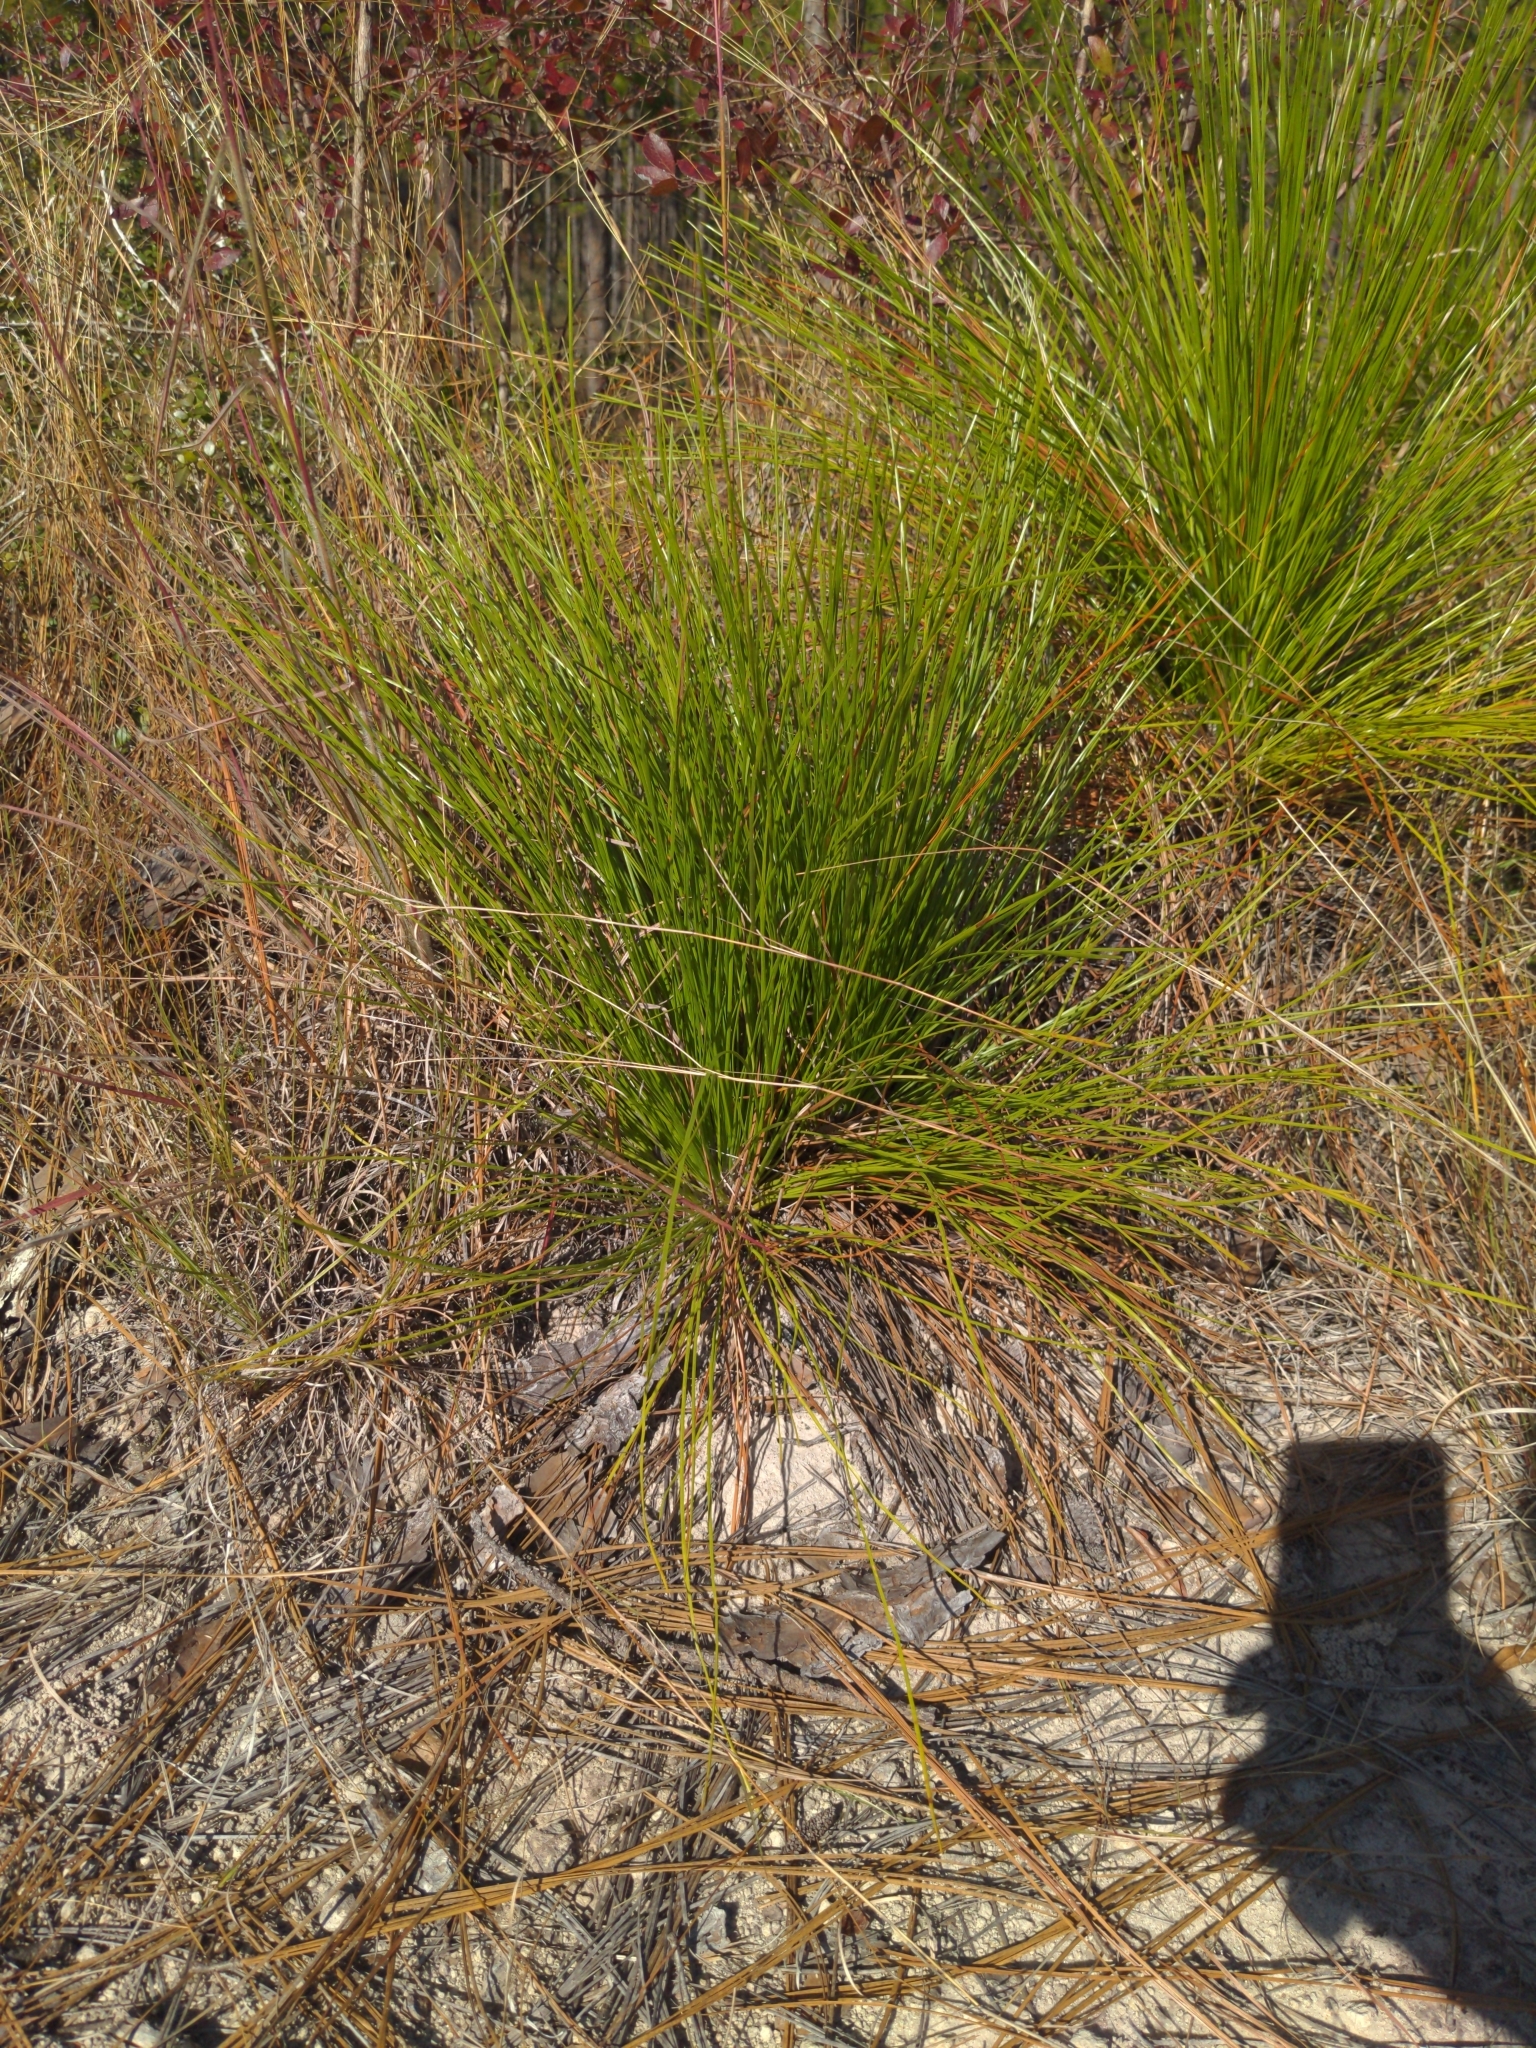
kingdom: Plantae
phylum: Tracheophyta
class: Pinopsida
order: Pinales
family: Pinaceae
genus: Pinus
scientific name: Pinus palustris
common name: Longleaf pine
